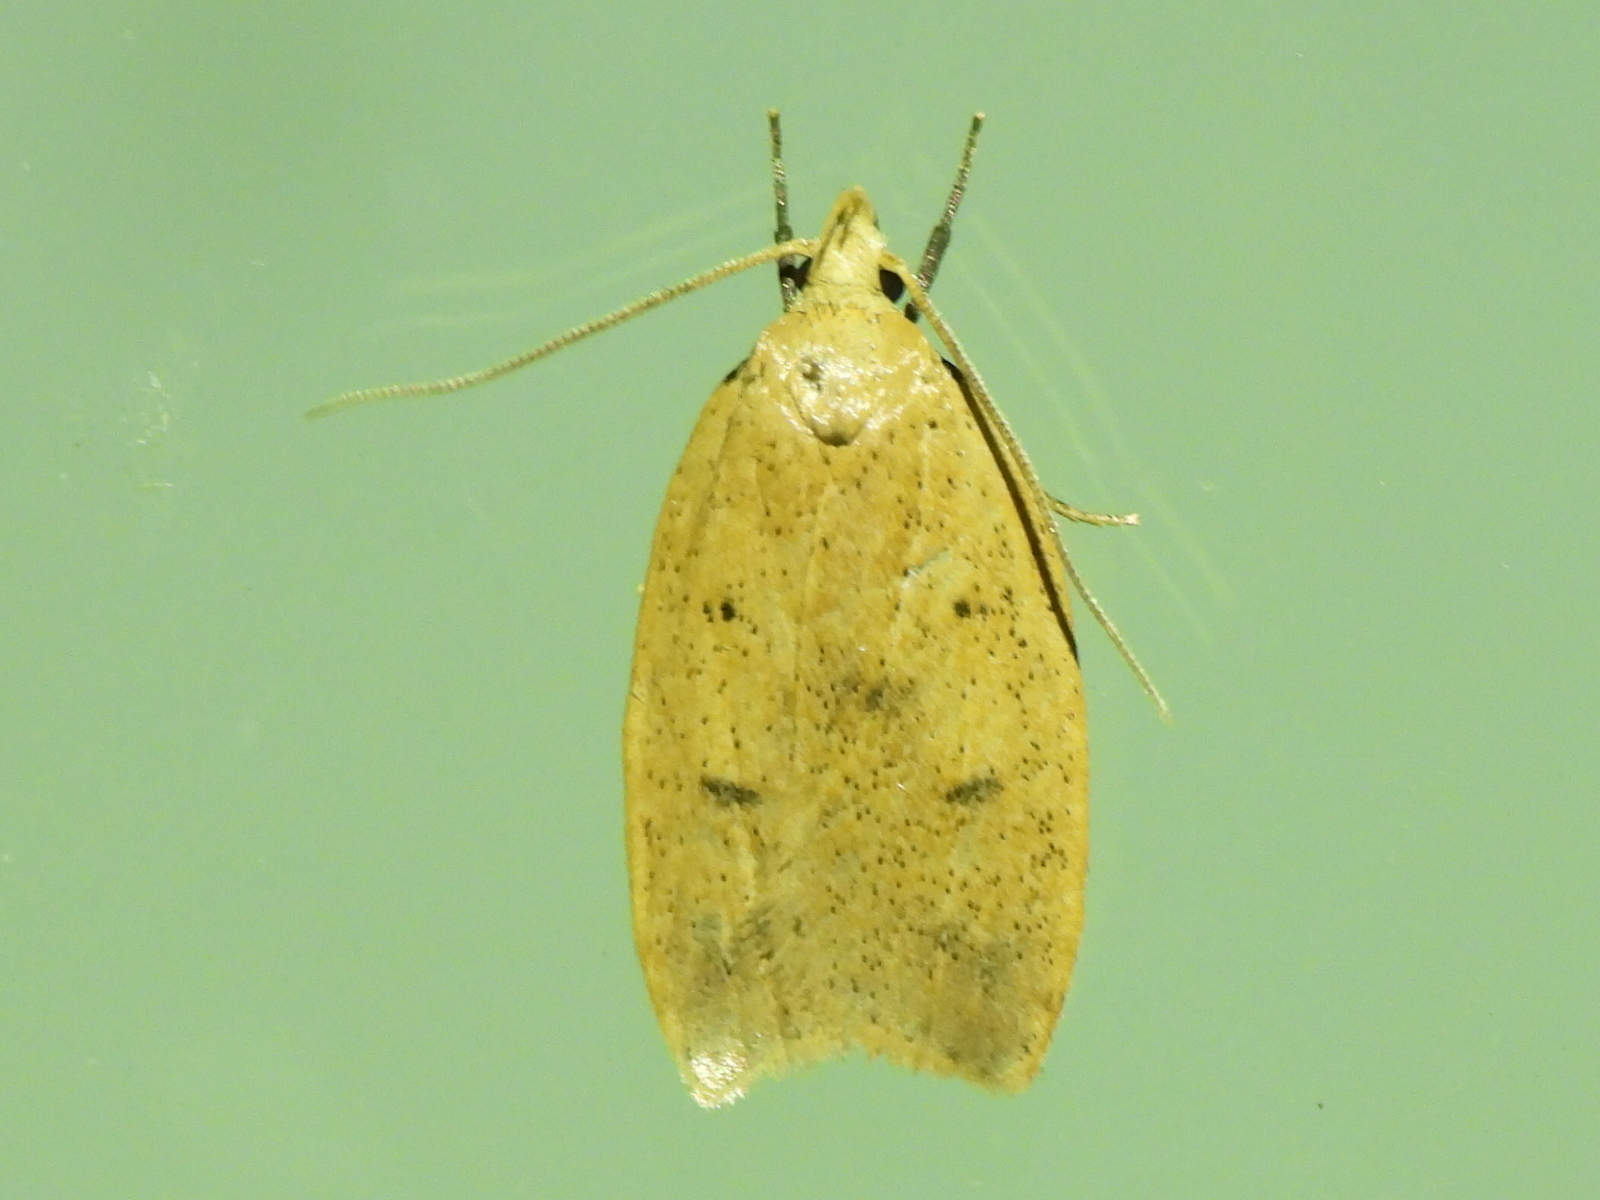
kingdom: Animalia
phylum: Arthropoda
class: Insecta
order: Lepidoptera
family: Peleopodidae
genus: Machimia
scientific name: Machimia tentoriferella
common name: Gold-striped leaftier moth
